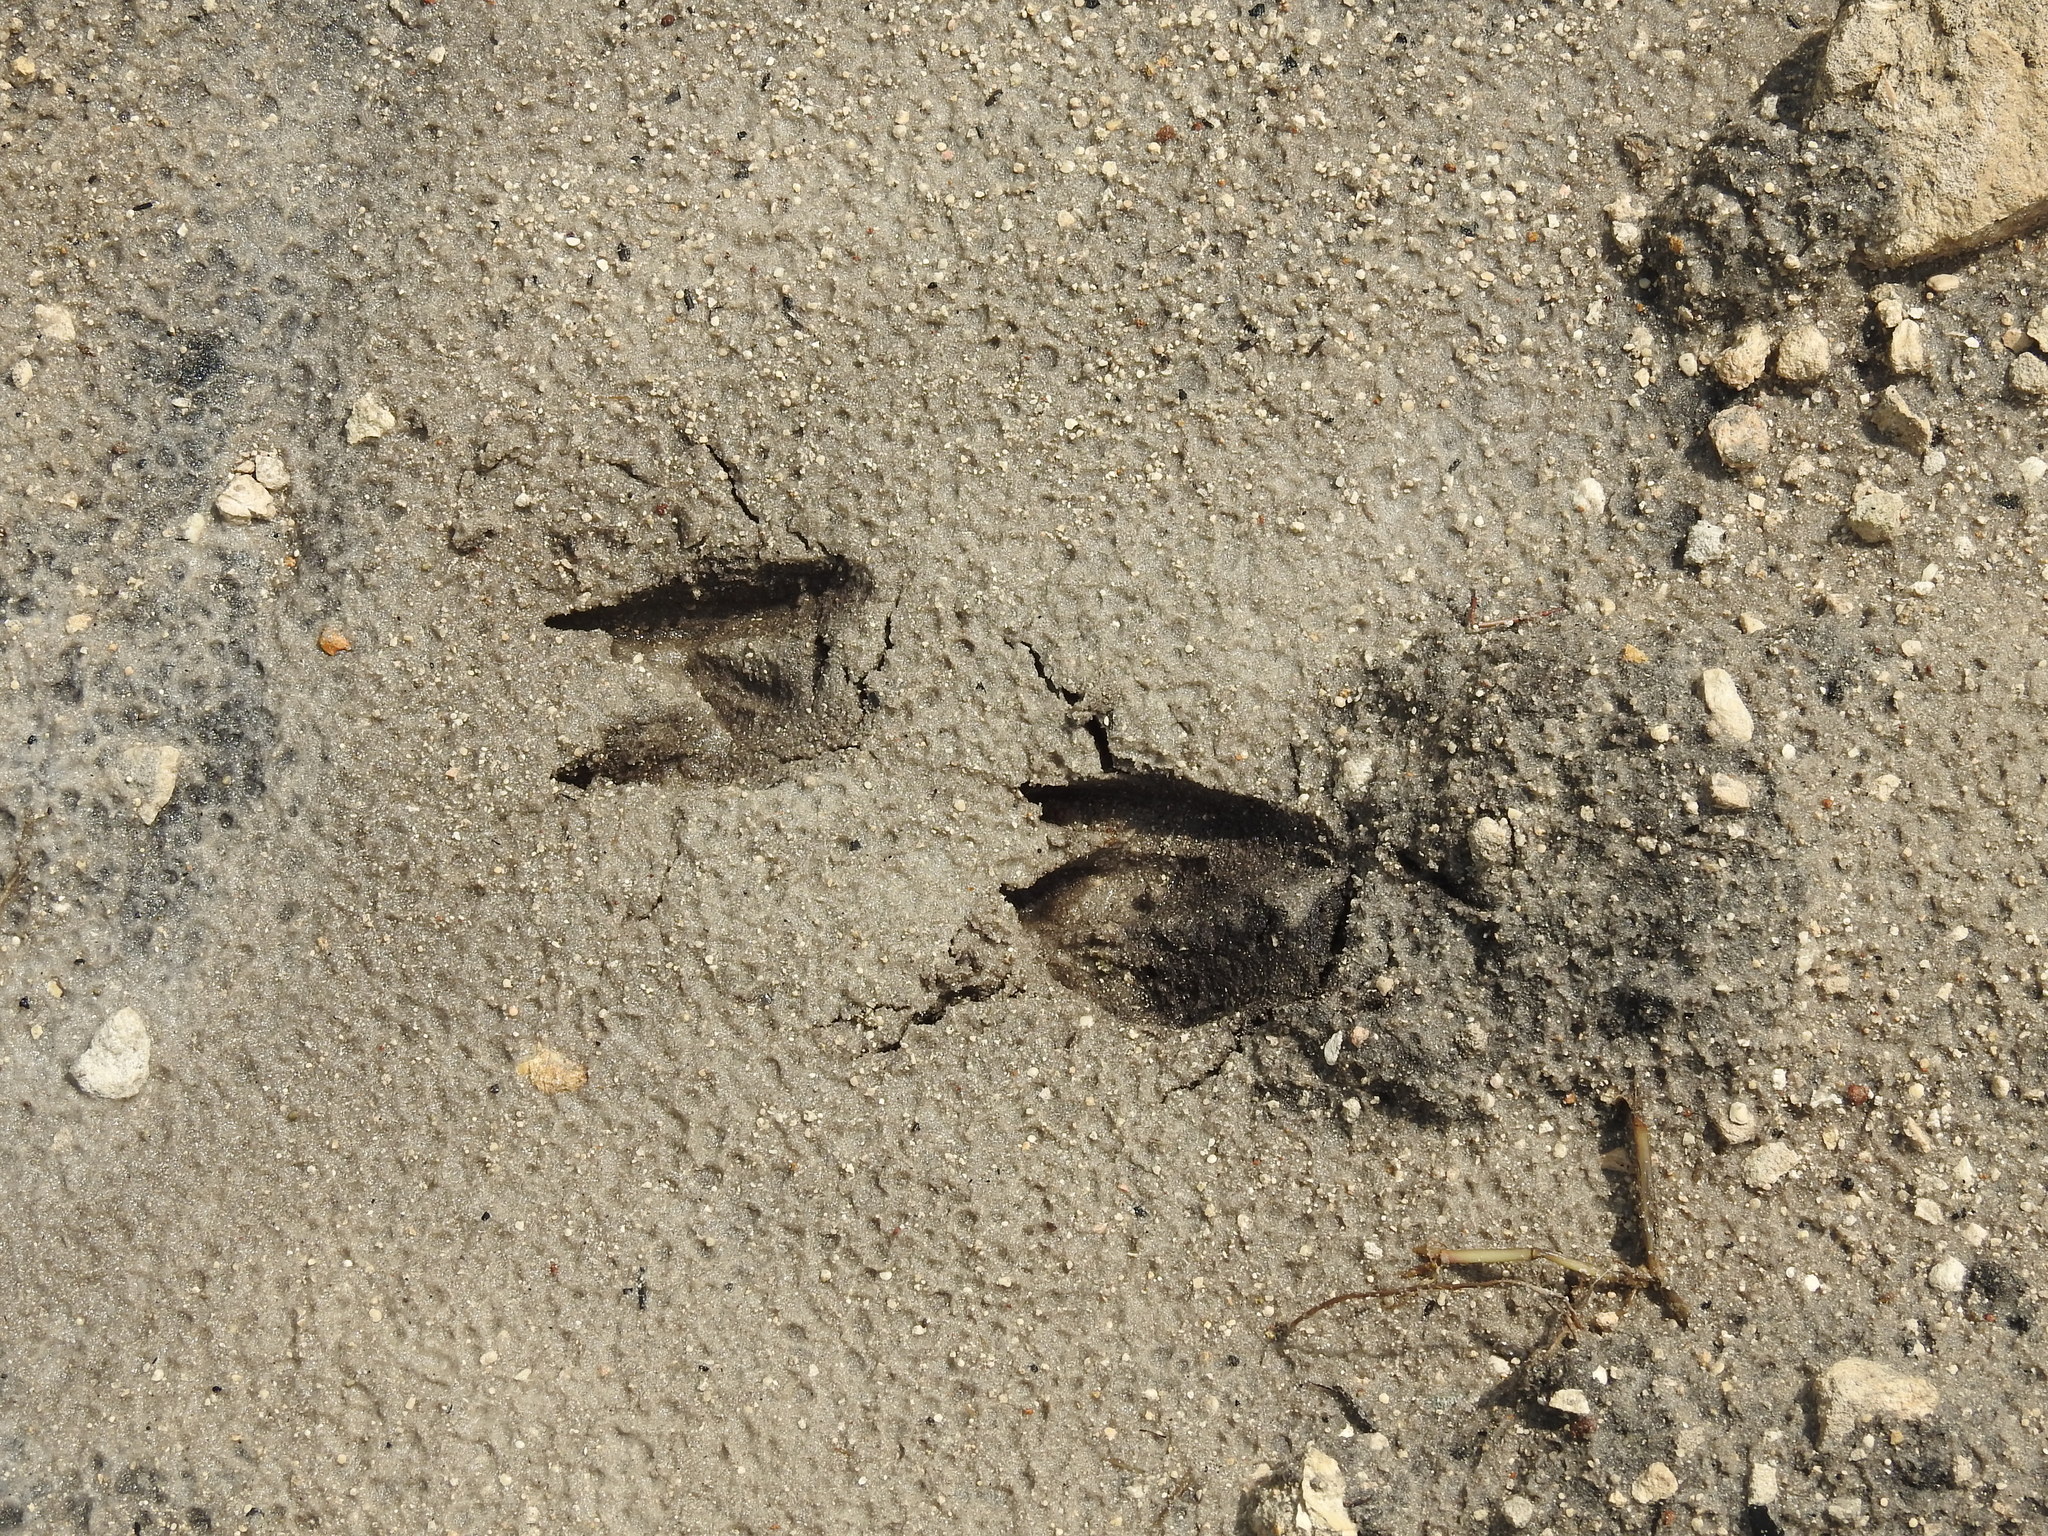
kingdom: Animalia
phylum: Chordata
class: Mammalia
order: Artiodactyla
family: Cervidae
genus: Odocoileus
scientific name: Odocoileus virginianus
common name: White-tailed deer
